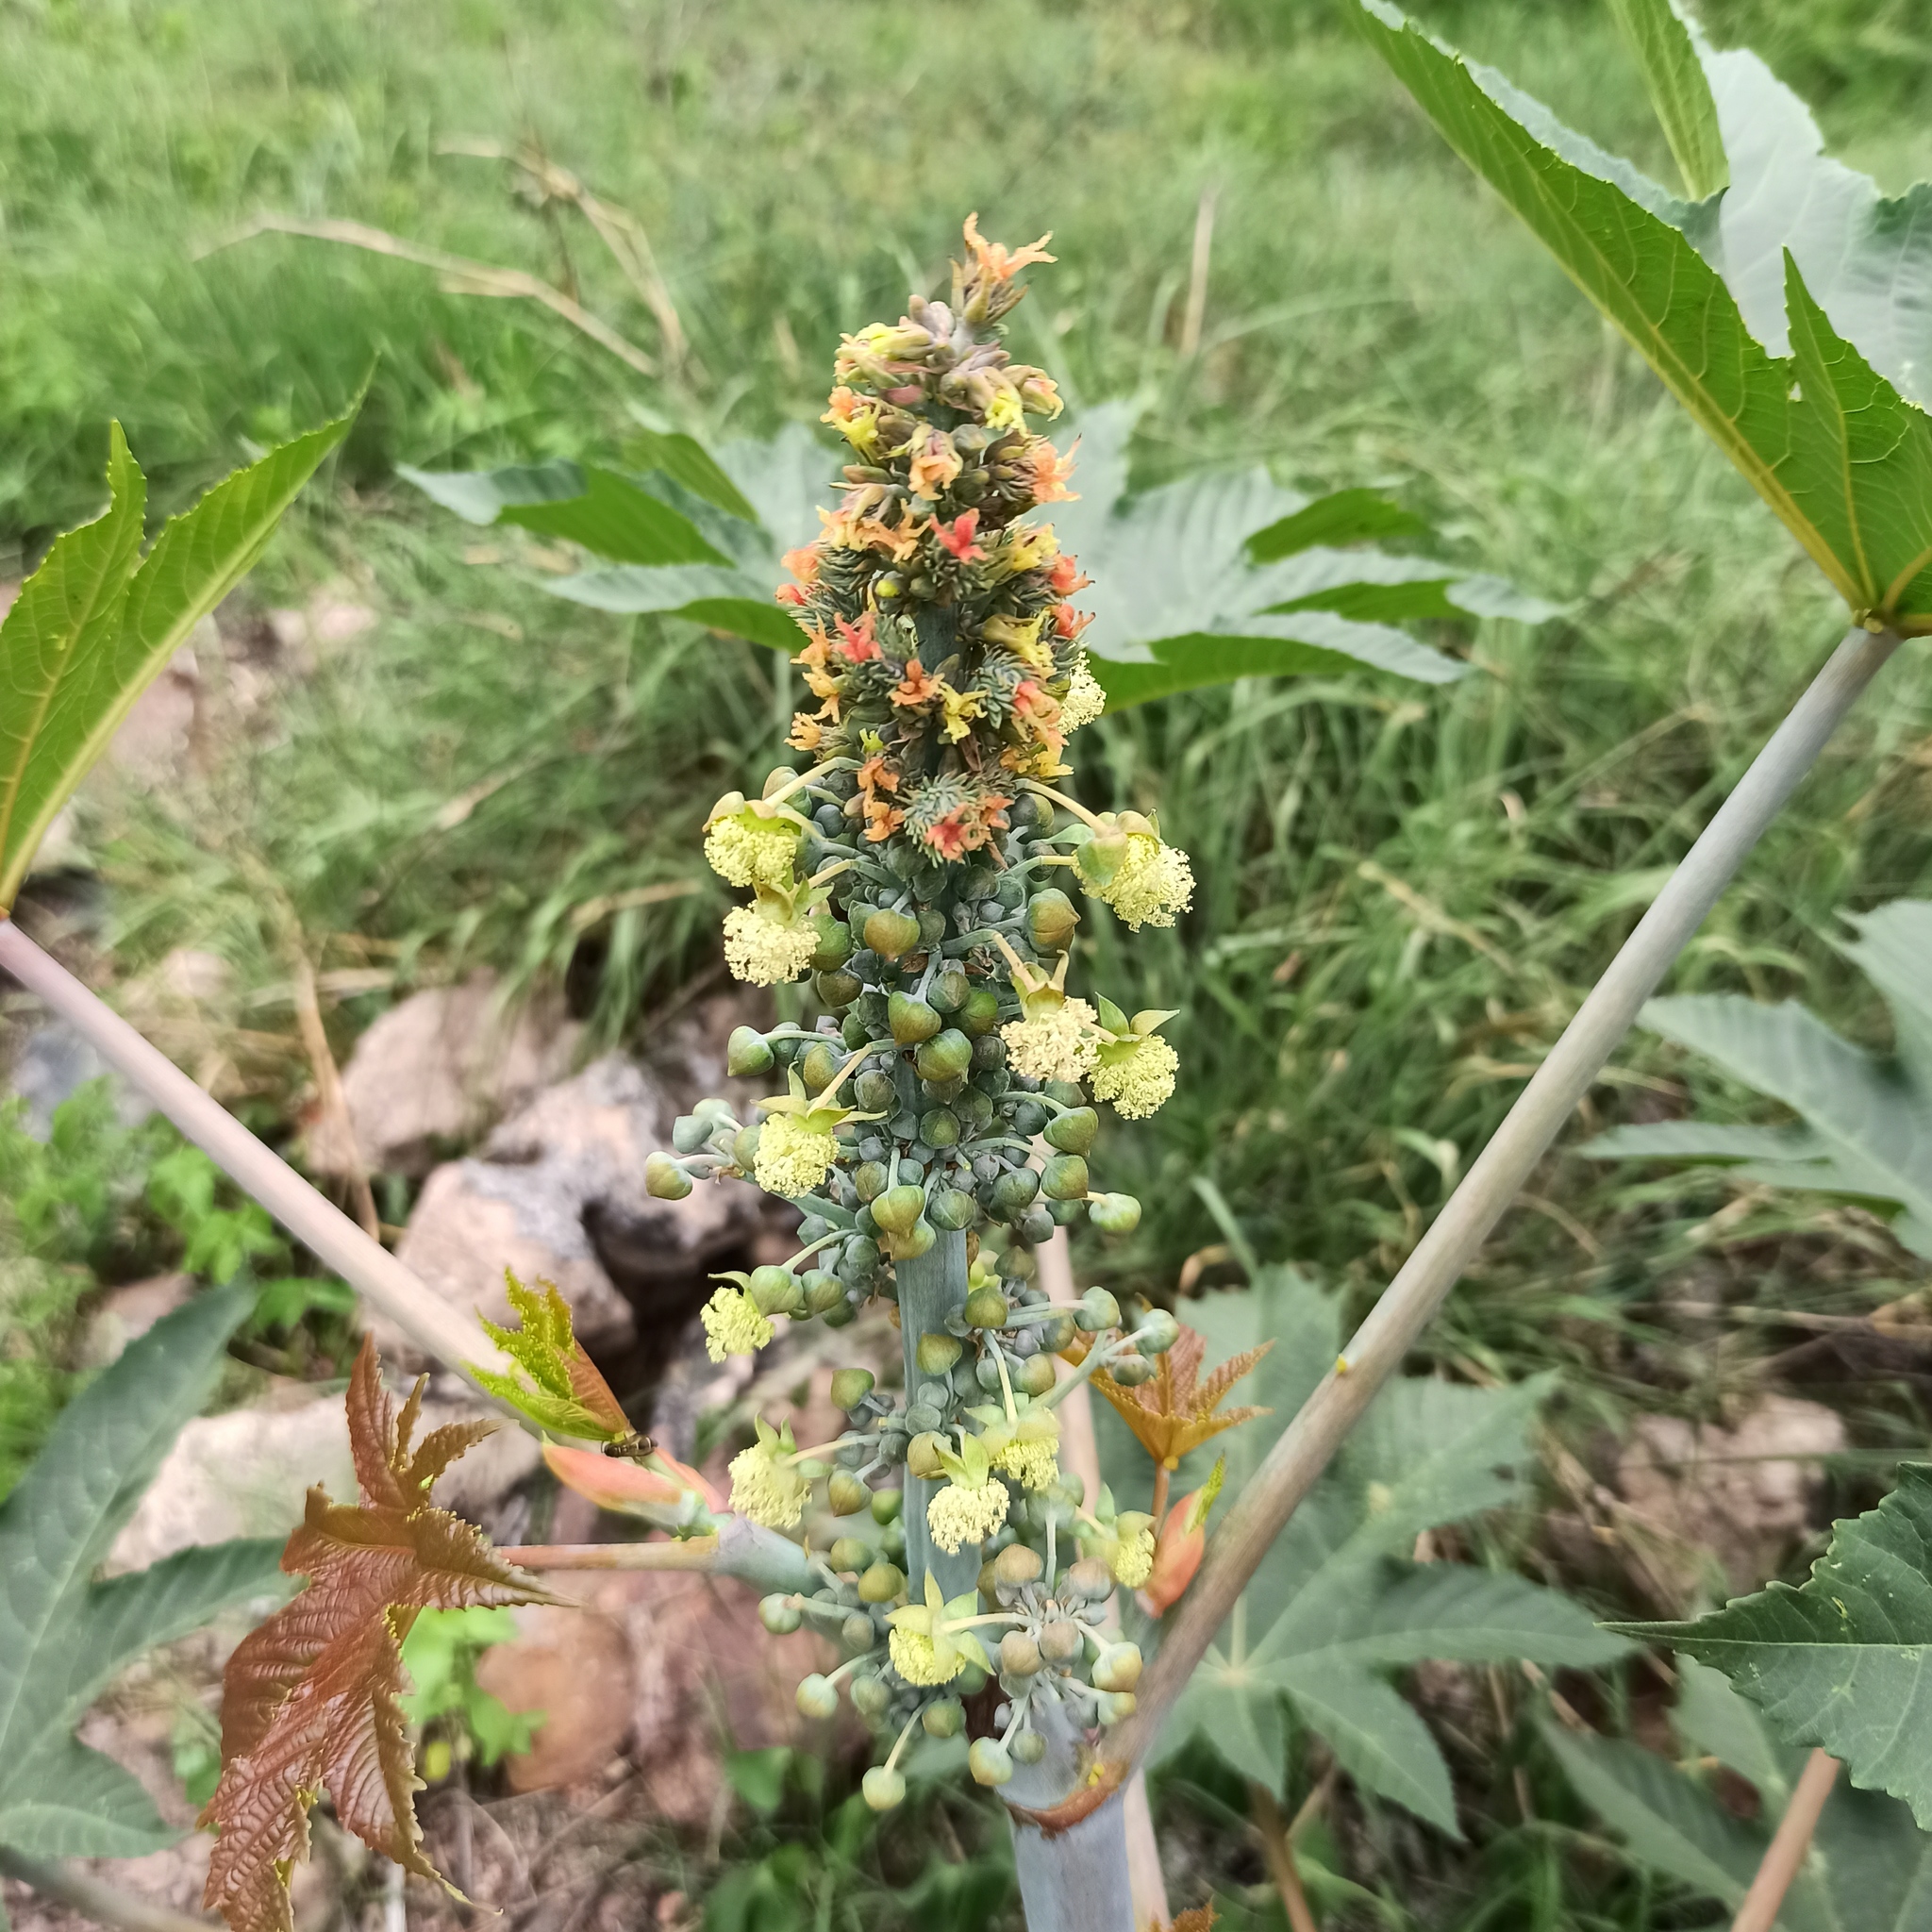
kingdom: Plantae
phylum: Tracheophyta
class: Magnoliopsida
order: Malpighiales
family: Euphorbiaceae
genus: Ricinus
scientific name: Ricinus communis
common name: Castor-oil-plant
